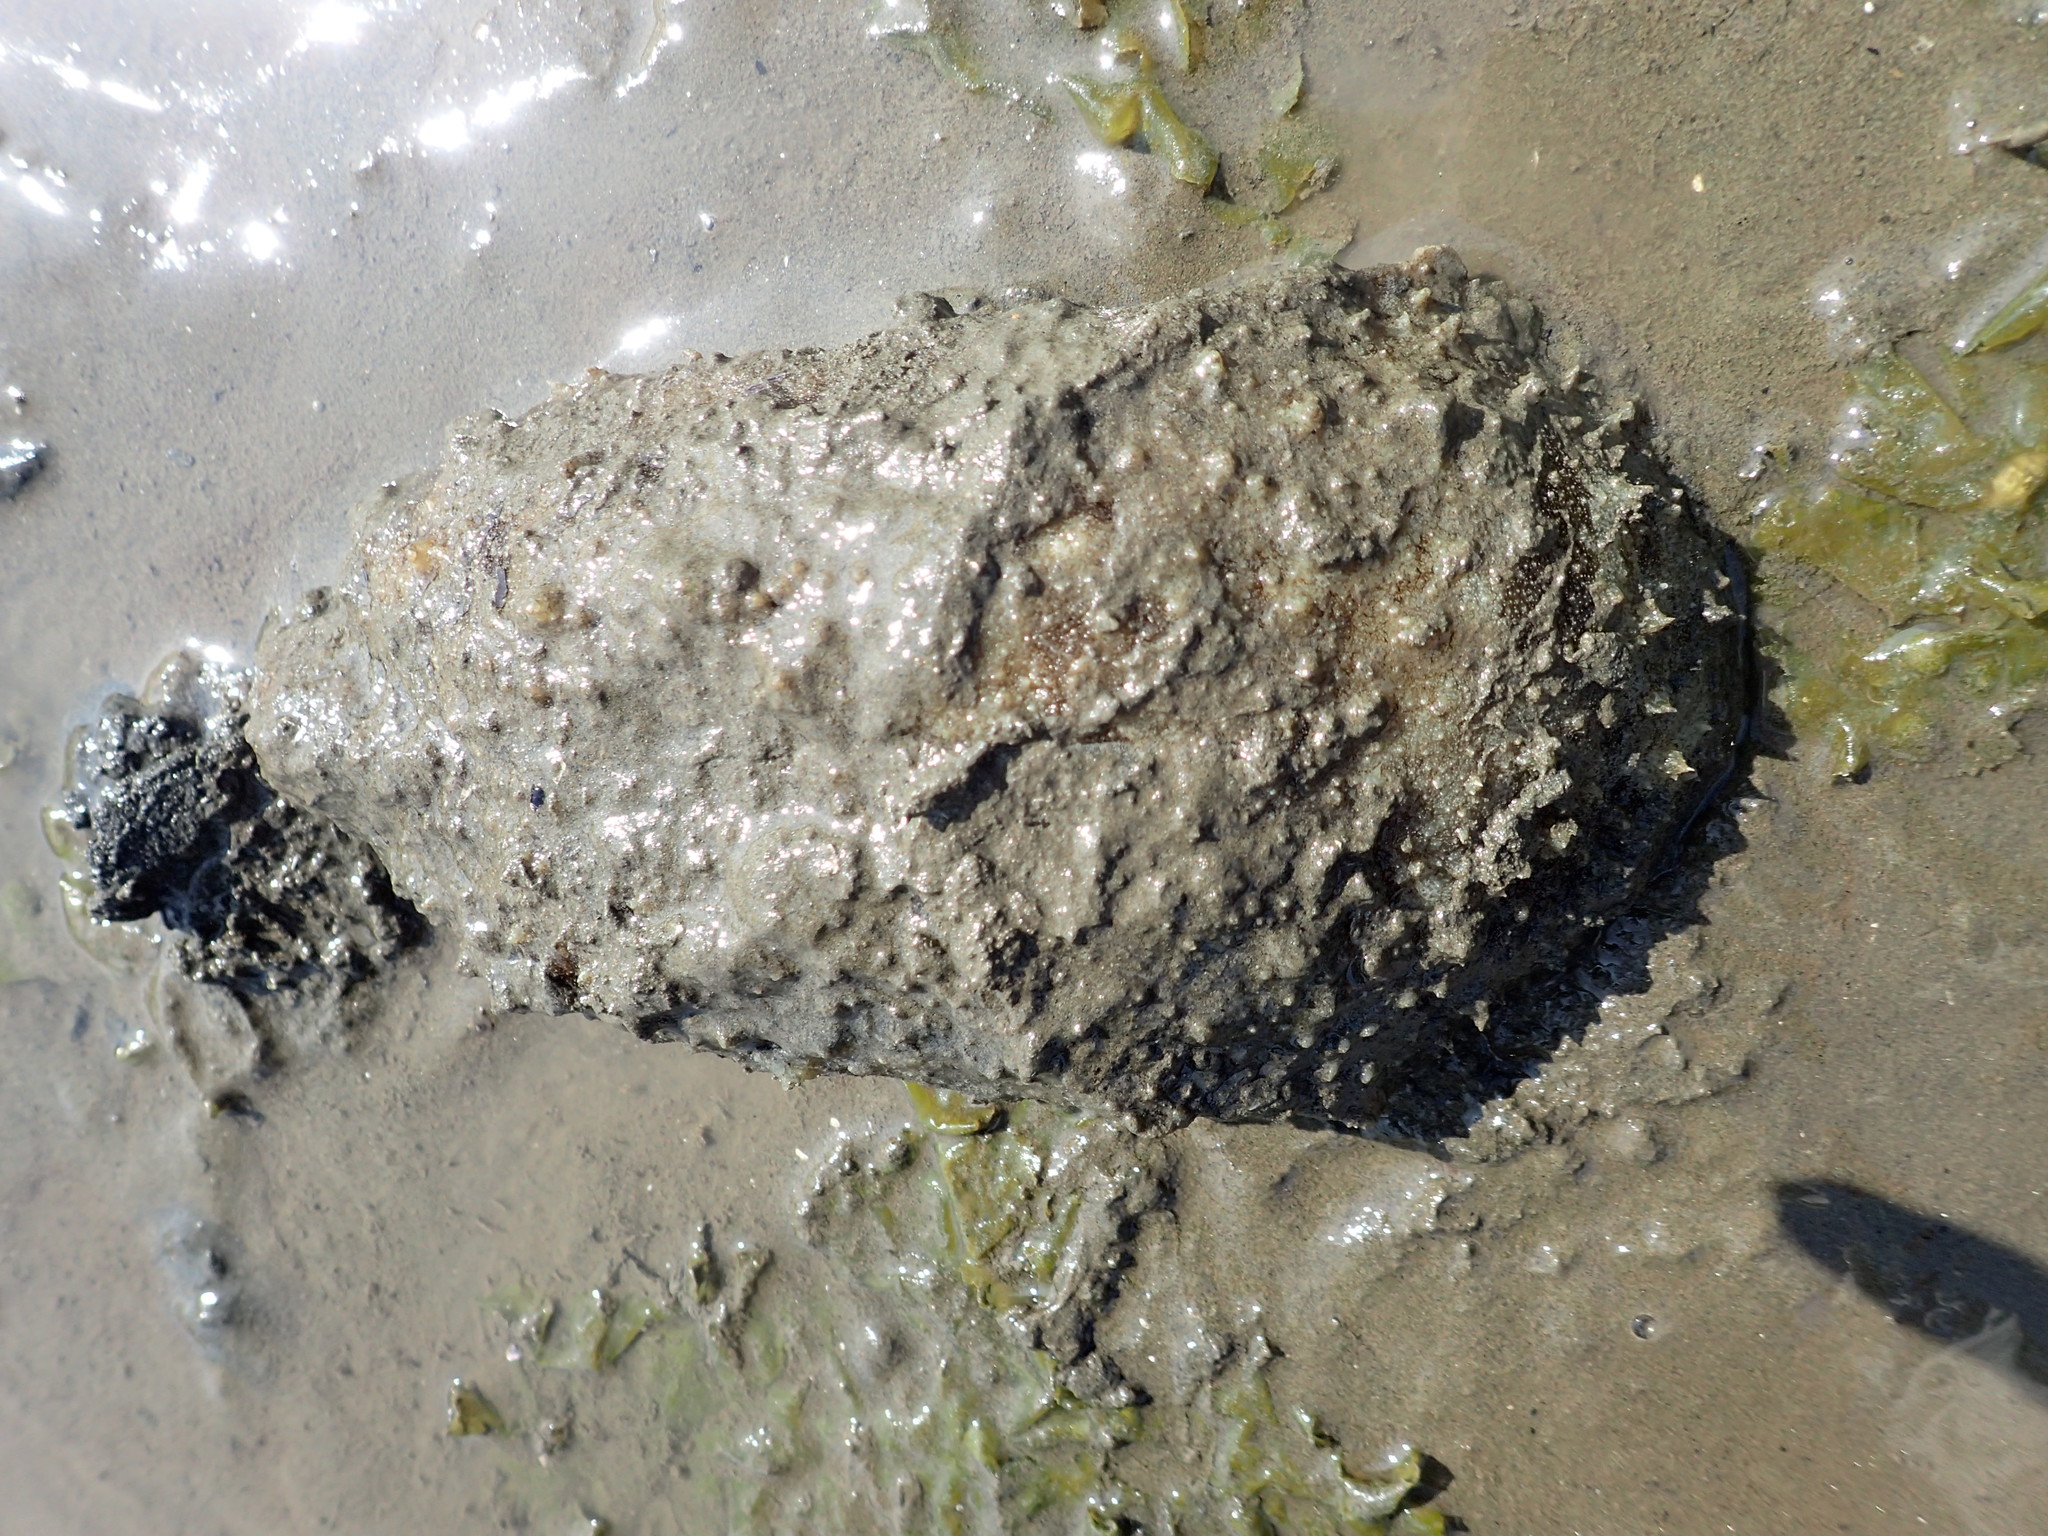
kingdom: Animalia
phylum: Mollusca
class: Gastropoda
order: Aplysiida
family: Aplysiidae
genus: Dolabella
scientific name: Dolabella auricularia
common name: Blunt-end seahare
